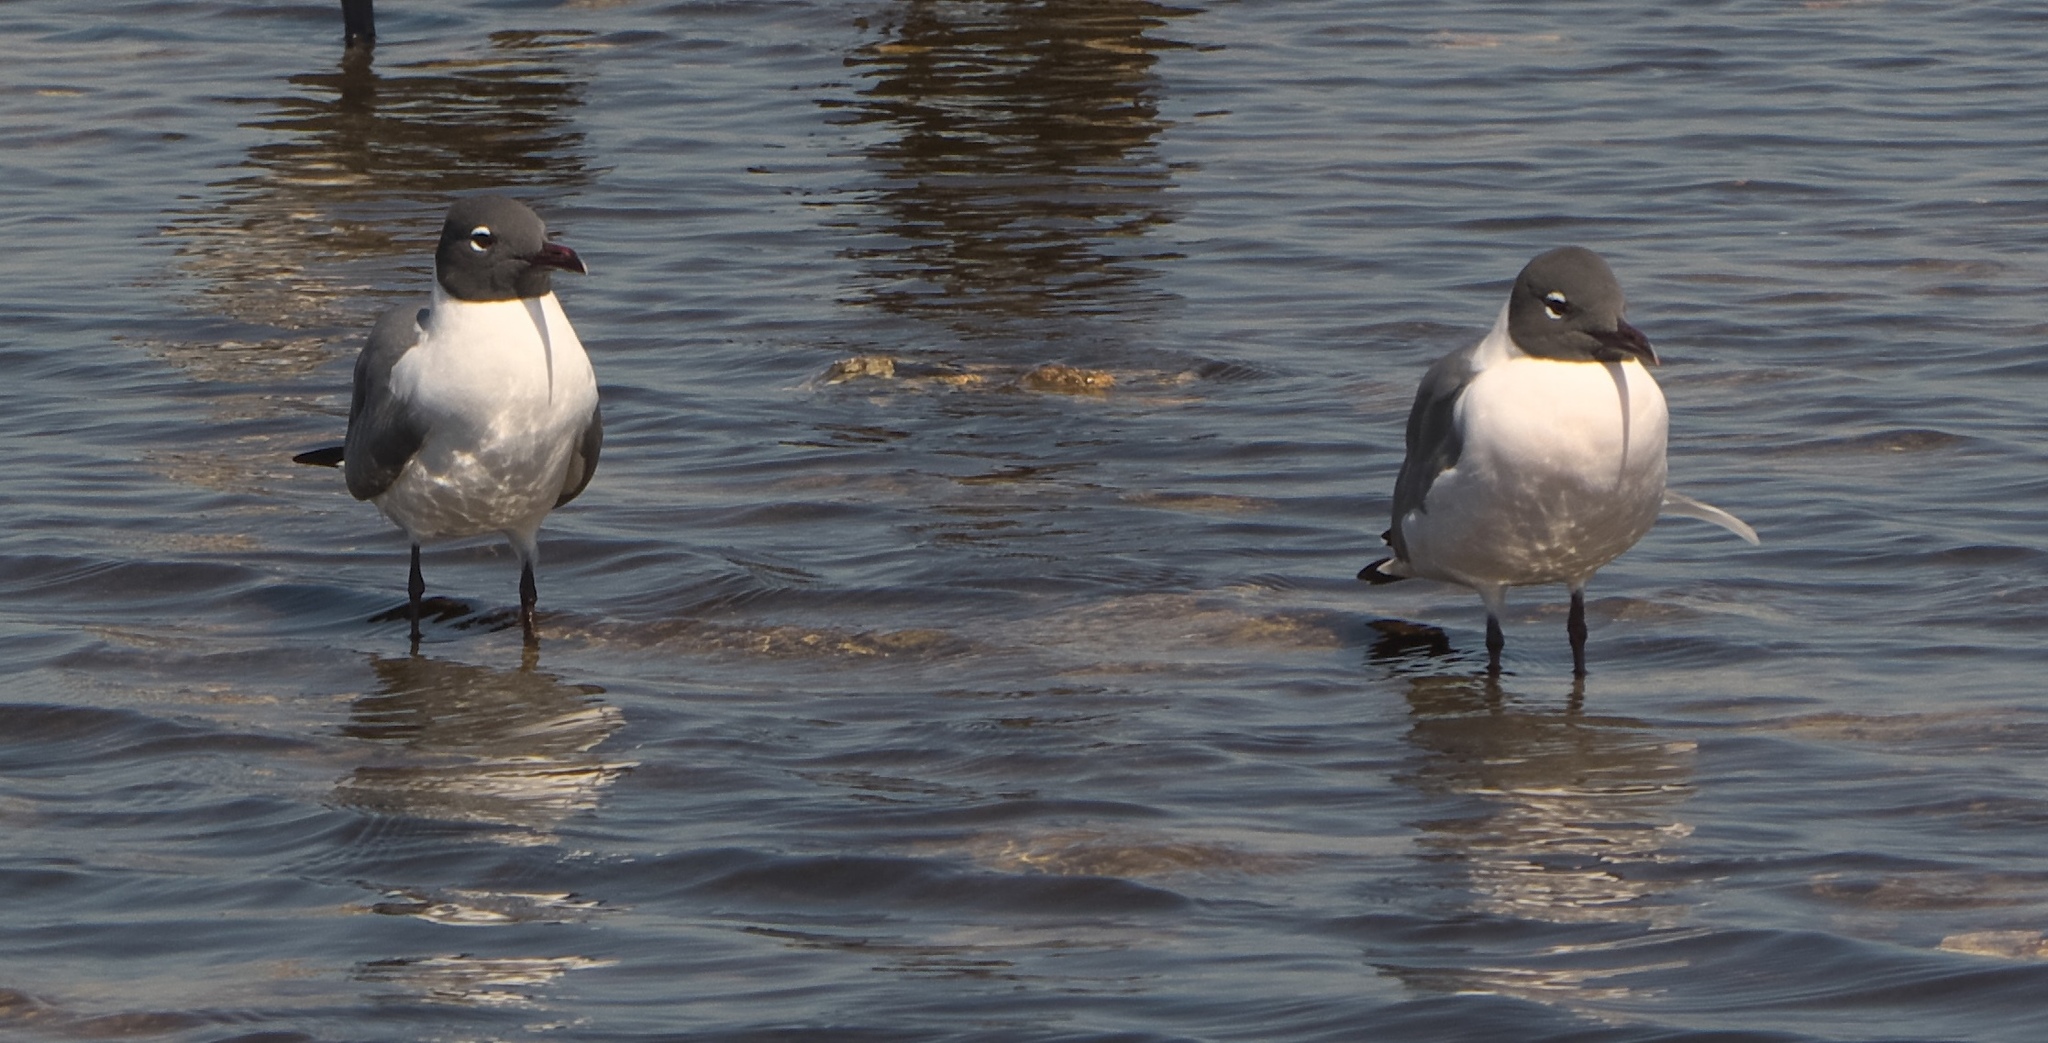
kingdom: Animalia
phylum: Chordata
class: Aves
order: Charadriiformes
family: Laridae
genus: Leucophaeus
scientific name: Leucophaeus atricilla
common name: Laughing gull
